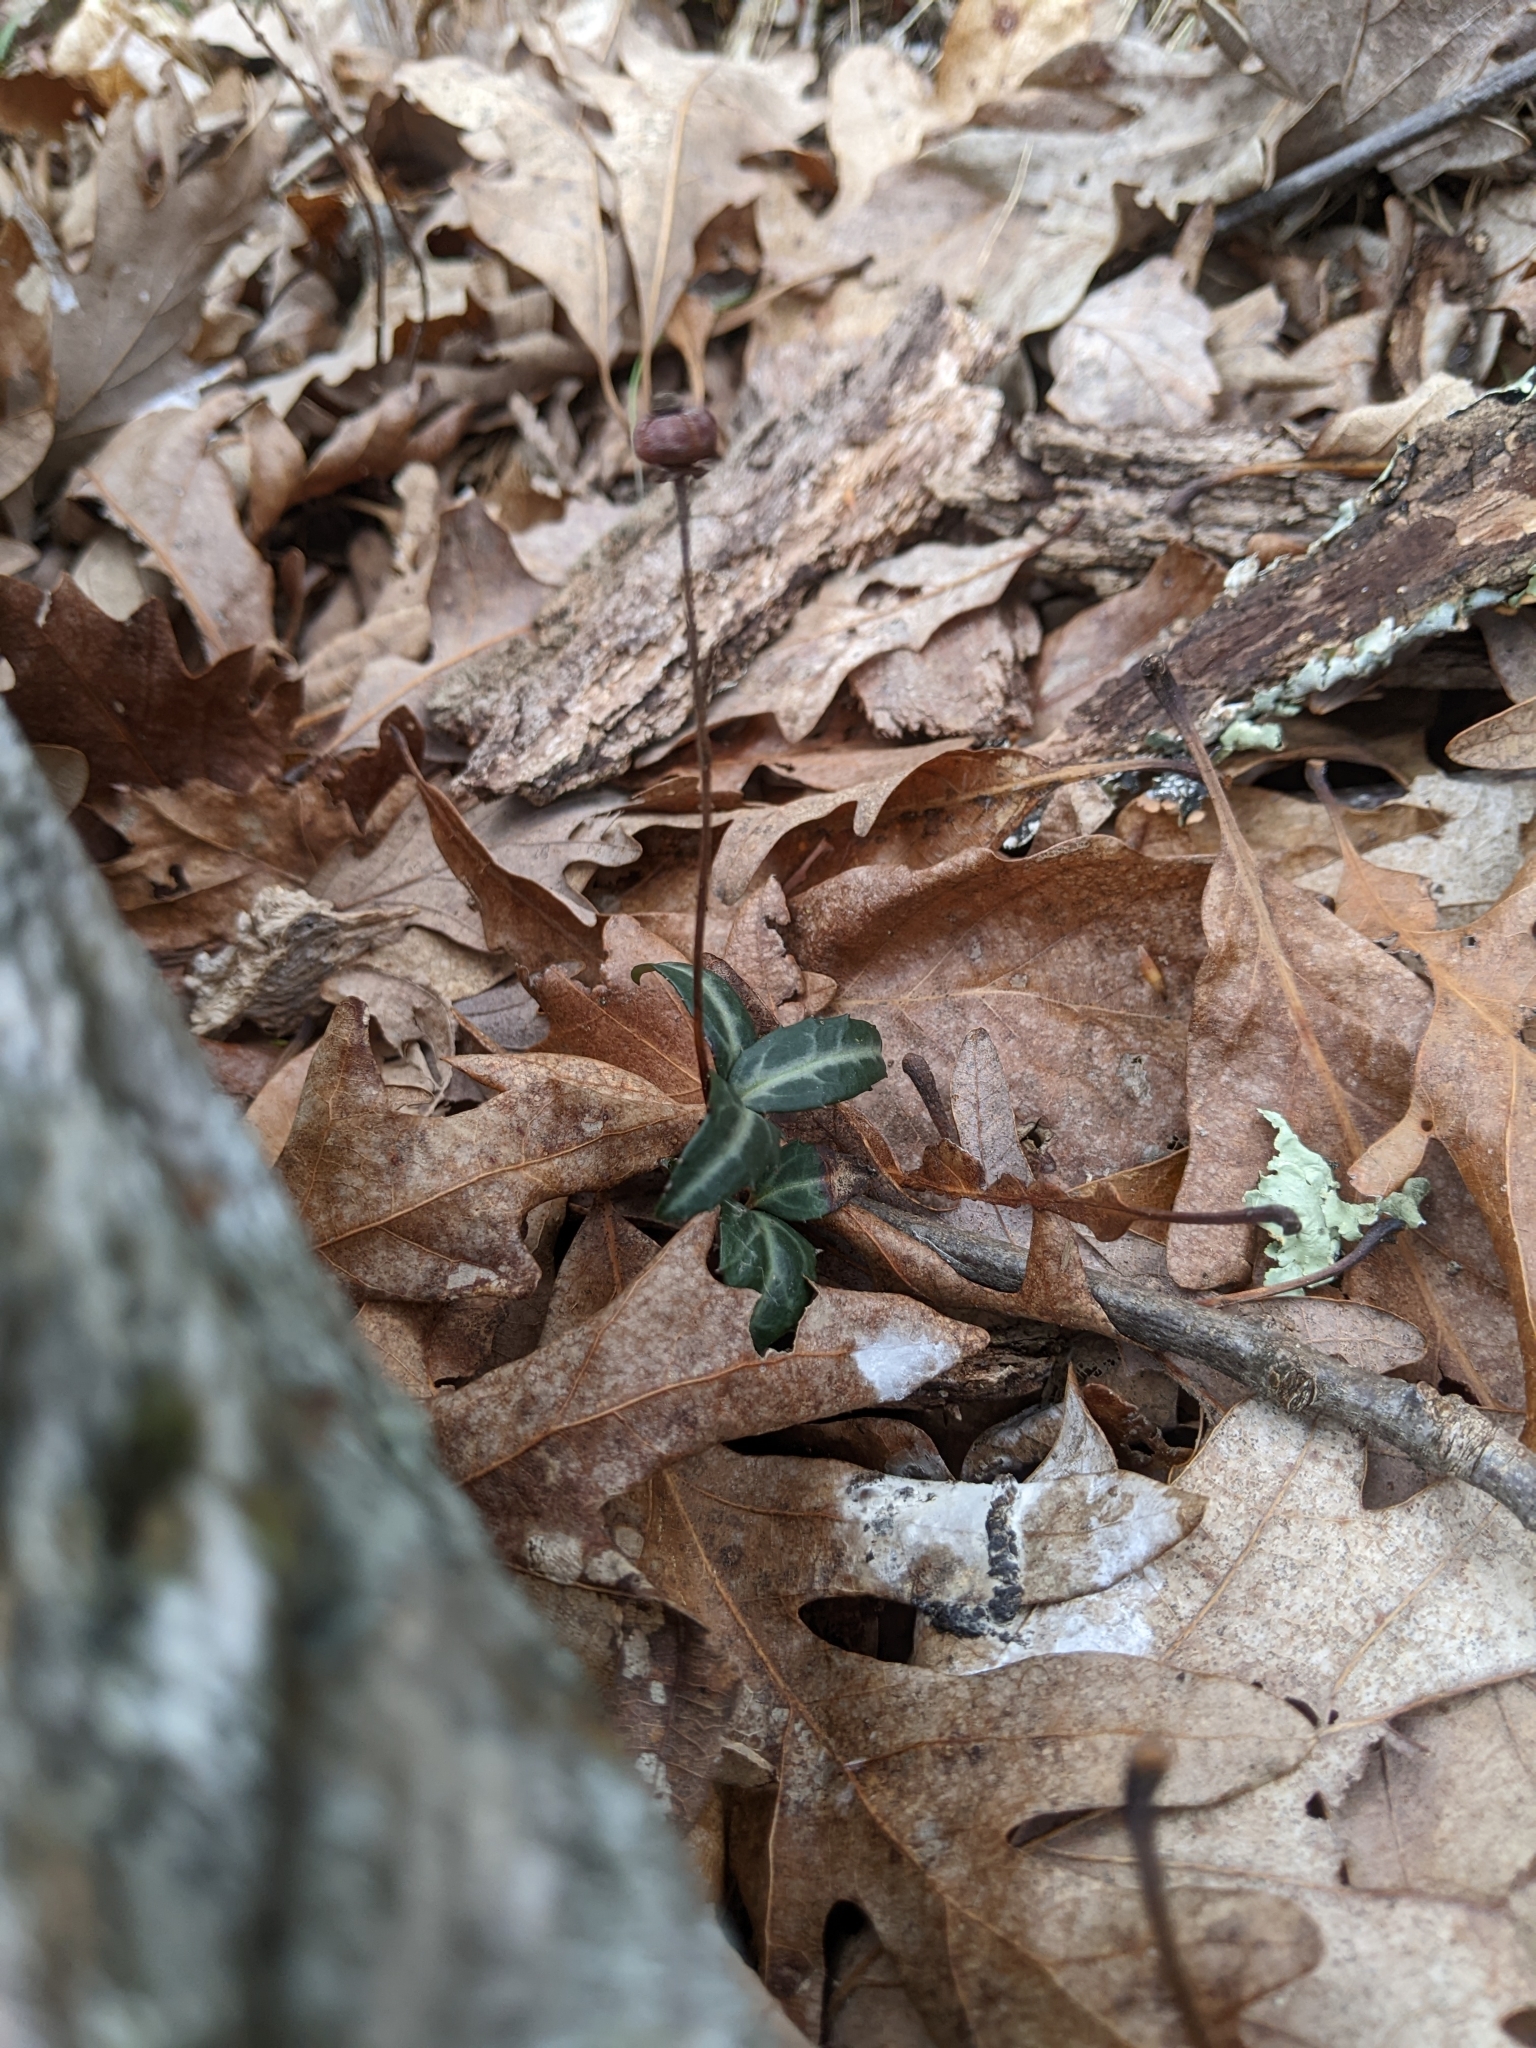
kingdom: Plantae
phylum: Tracheophyta
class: Magnoliopsida
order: Ericales
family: Ericaceae
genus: Chimaphila
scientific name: Chimaphila maculata
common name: Spotted pipsissewa
